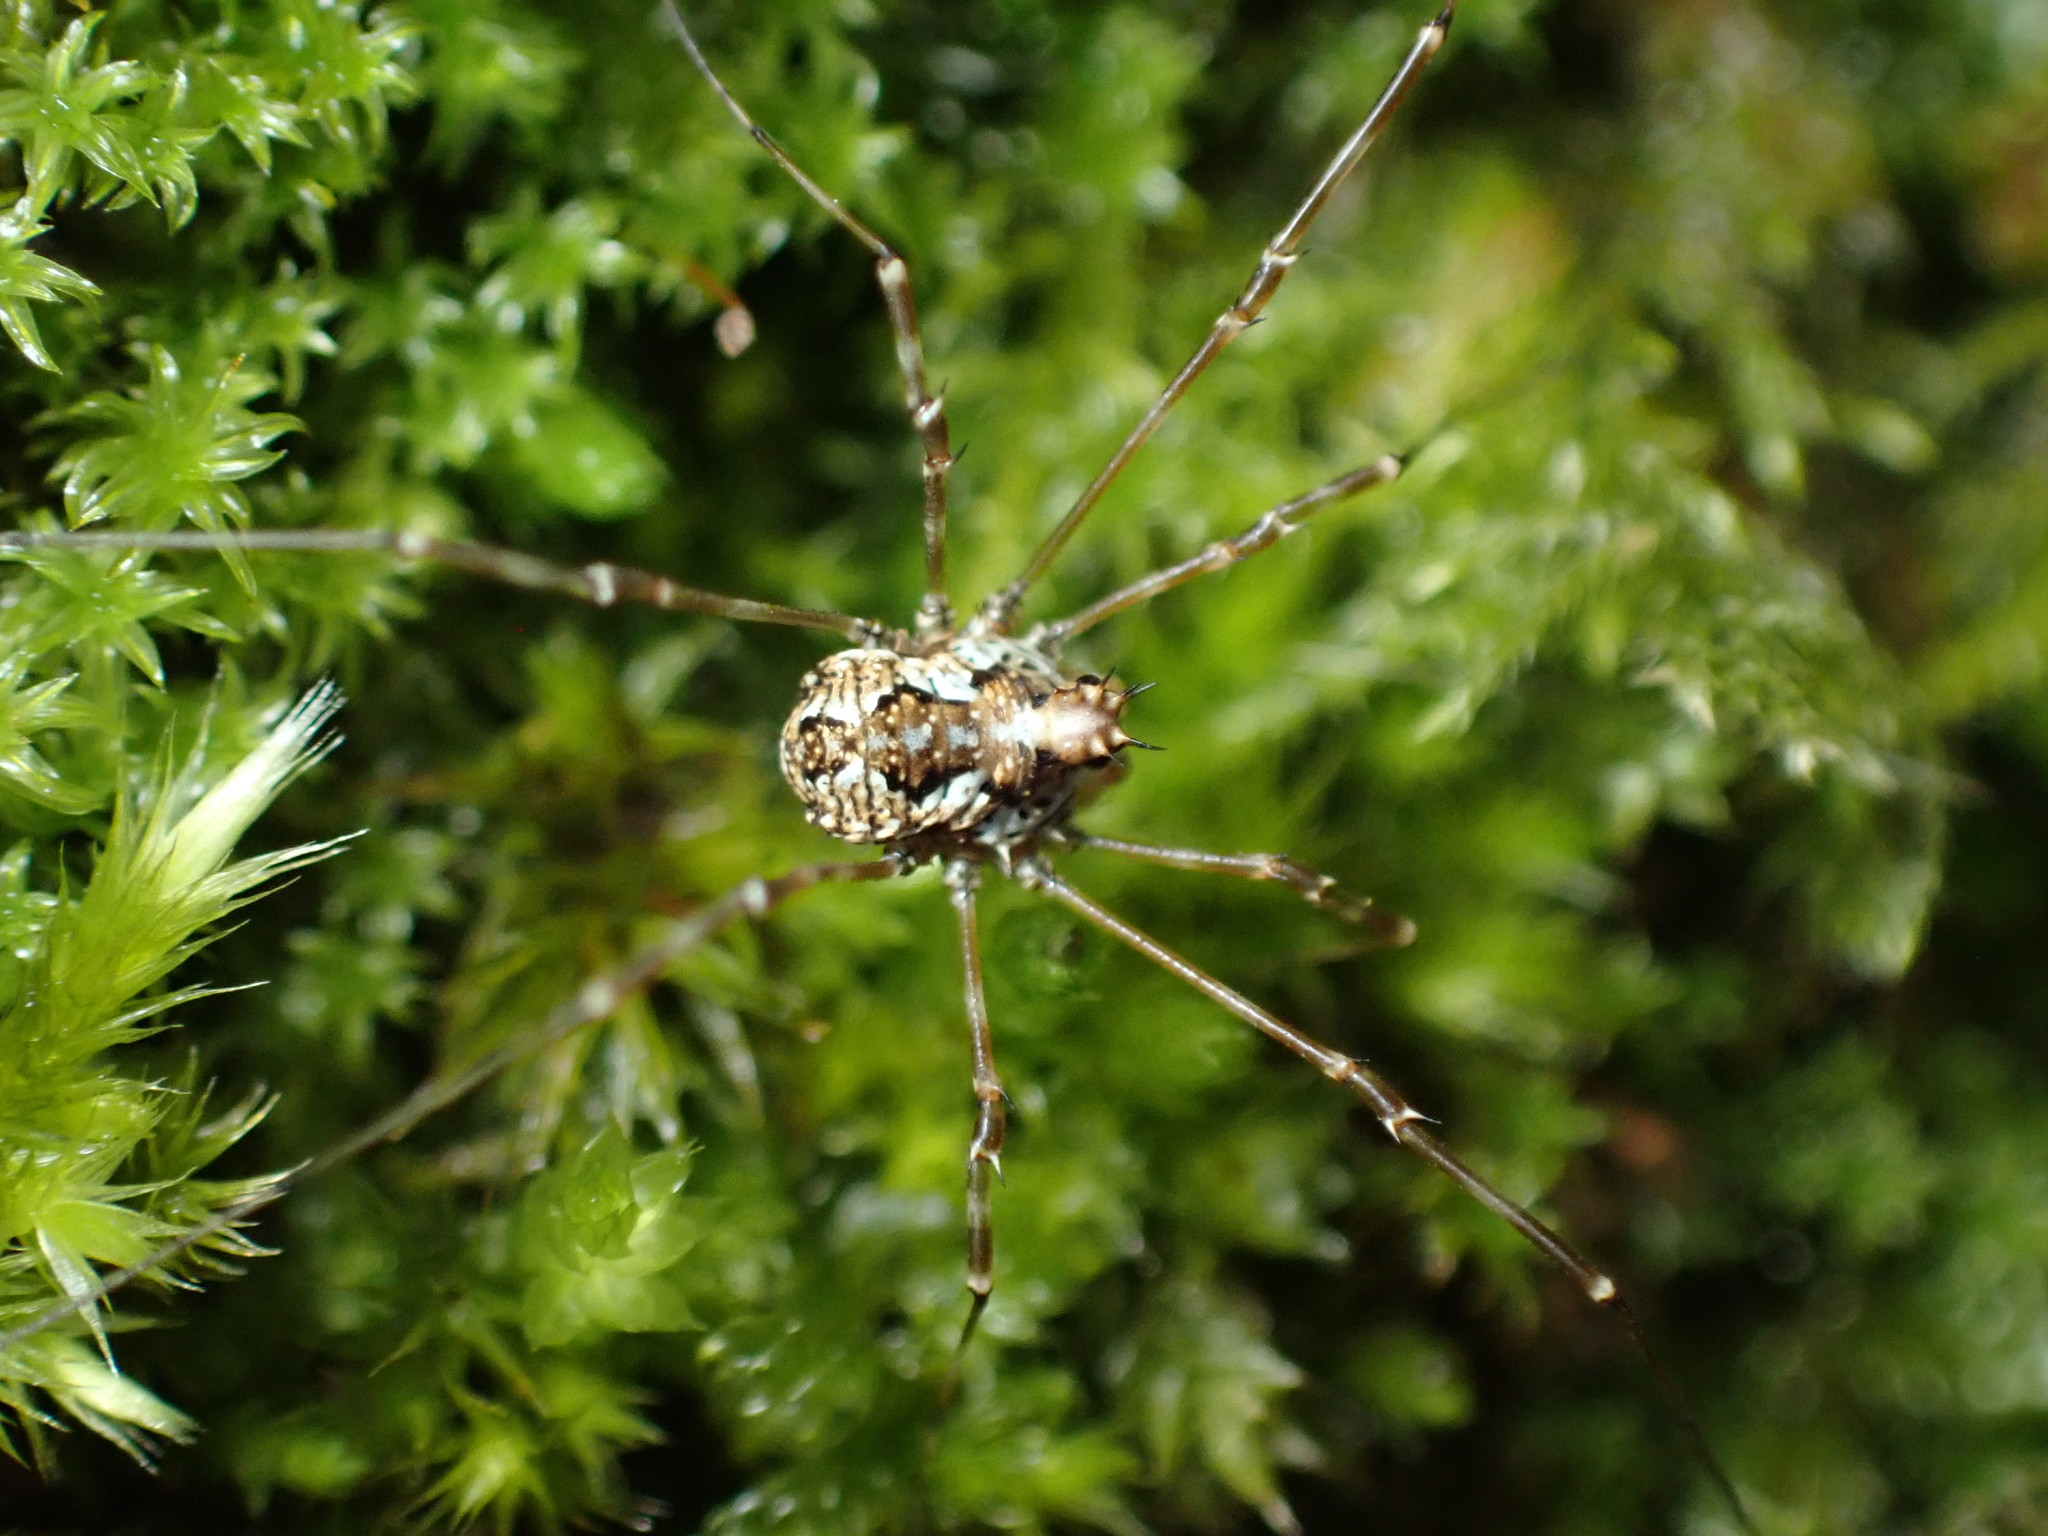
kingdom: Animalia
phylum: Arthropoda
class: Arachnida
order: Opiliones
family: Phalangiidae
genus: Megabunus
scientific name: Megabunus diadema
